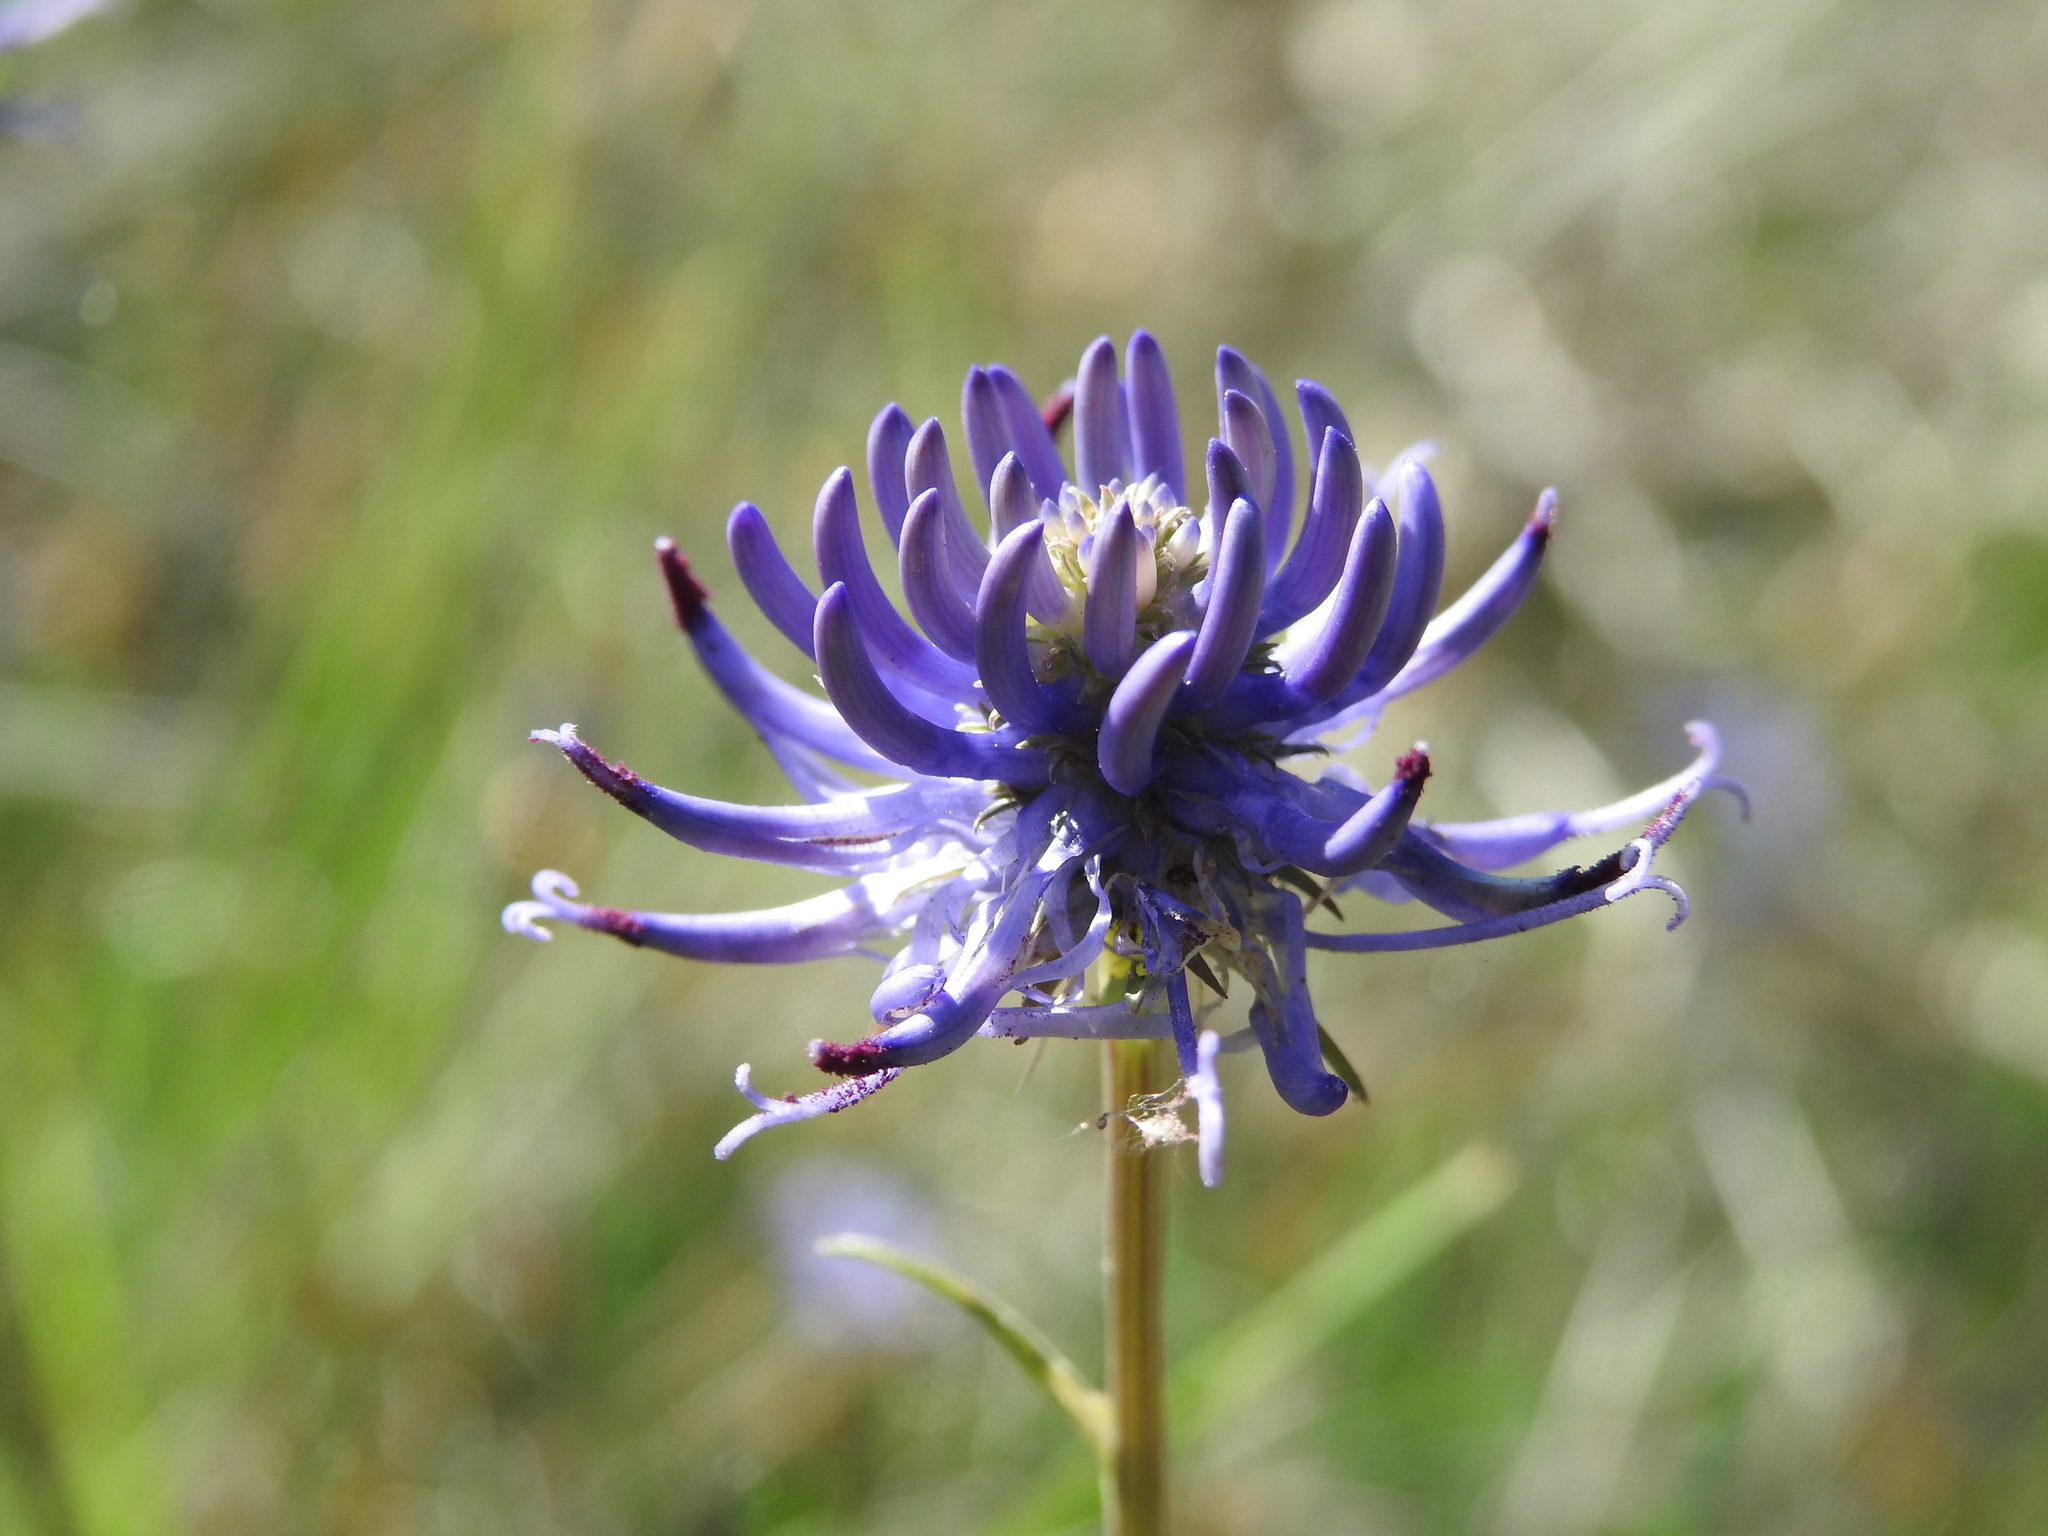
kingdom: Plantae
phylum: Tracheophyta
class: Magnoliopsida
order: Asterales
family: Campanulaceae
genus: Phyteuma
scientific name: Phyteuma orbiculare
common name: Round-headed rampion
